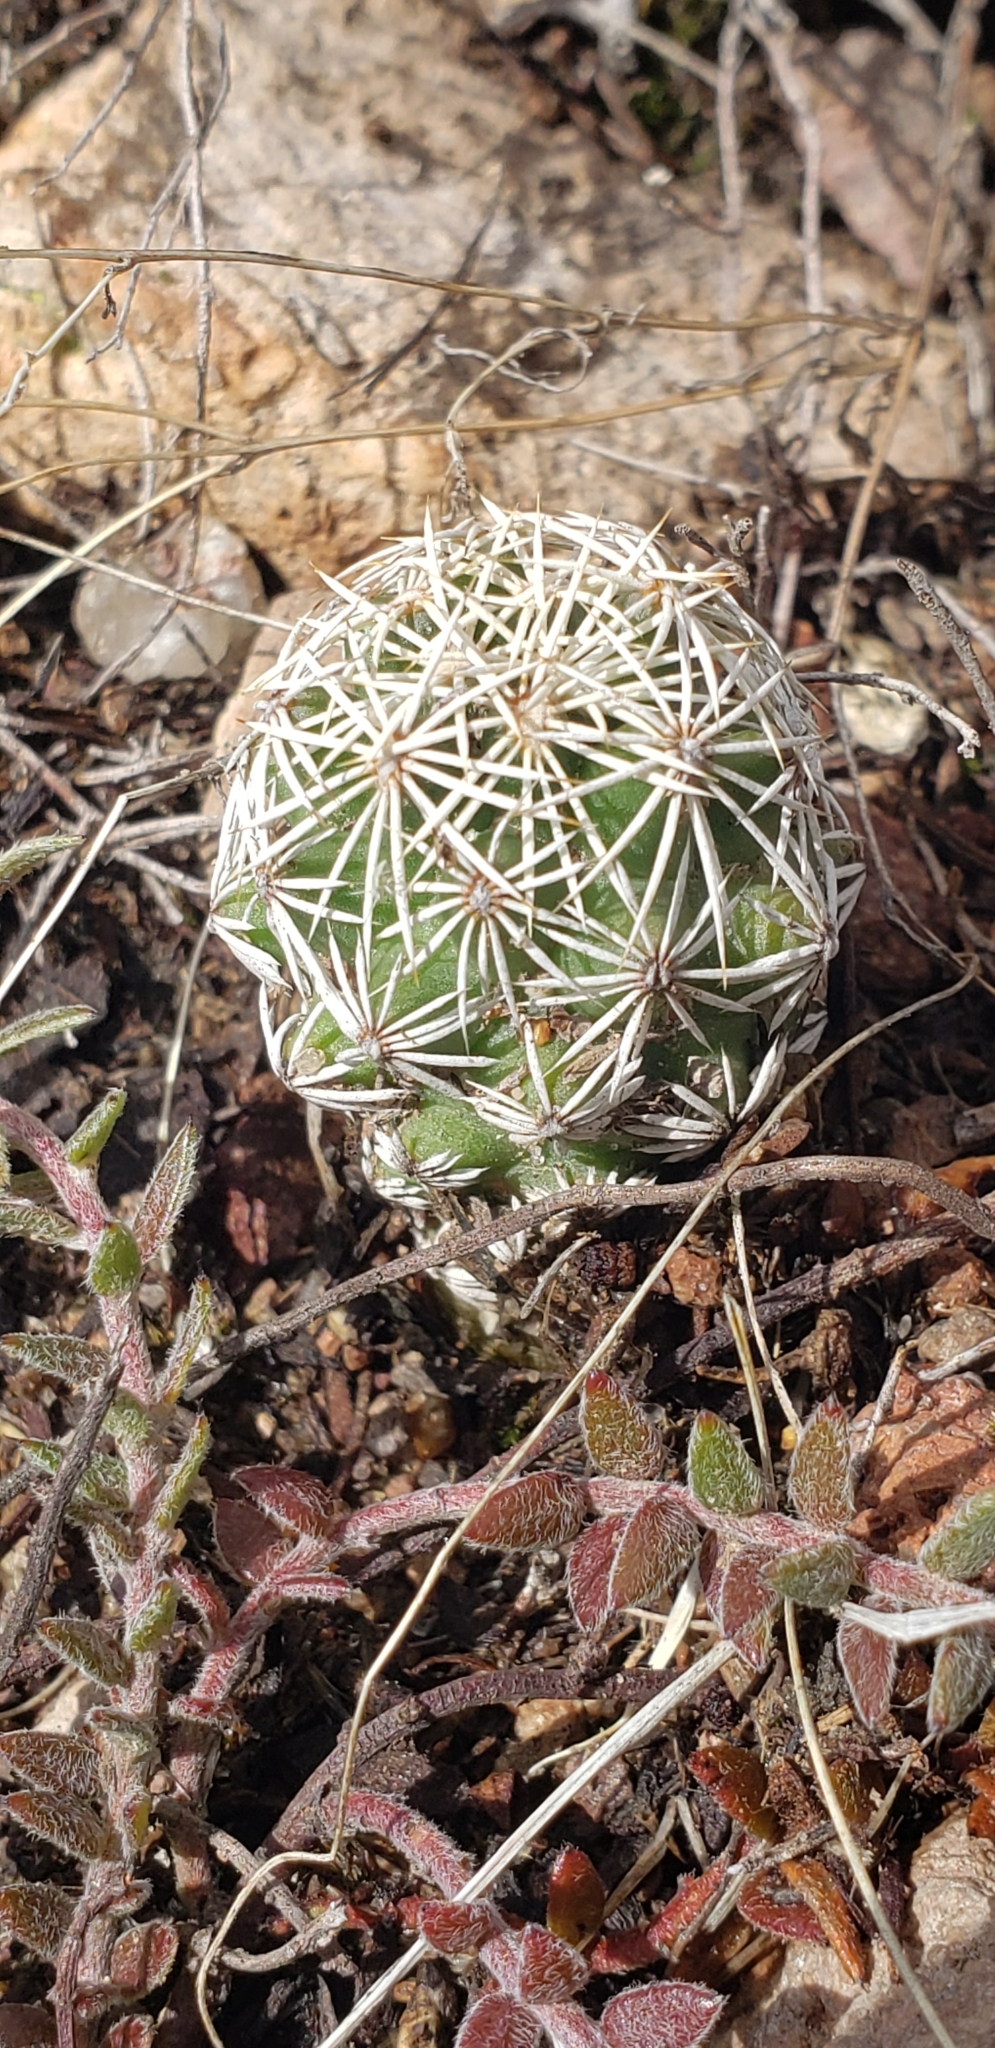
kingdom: Plantae
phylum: Tracheophyta
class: Magnoliopsida
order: Caryophyllales
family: Cactaceae
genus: Coryphantha
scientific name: Coryphantha clavata
